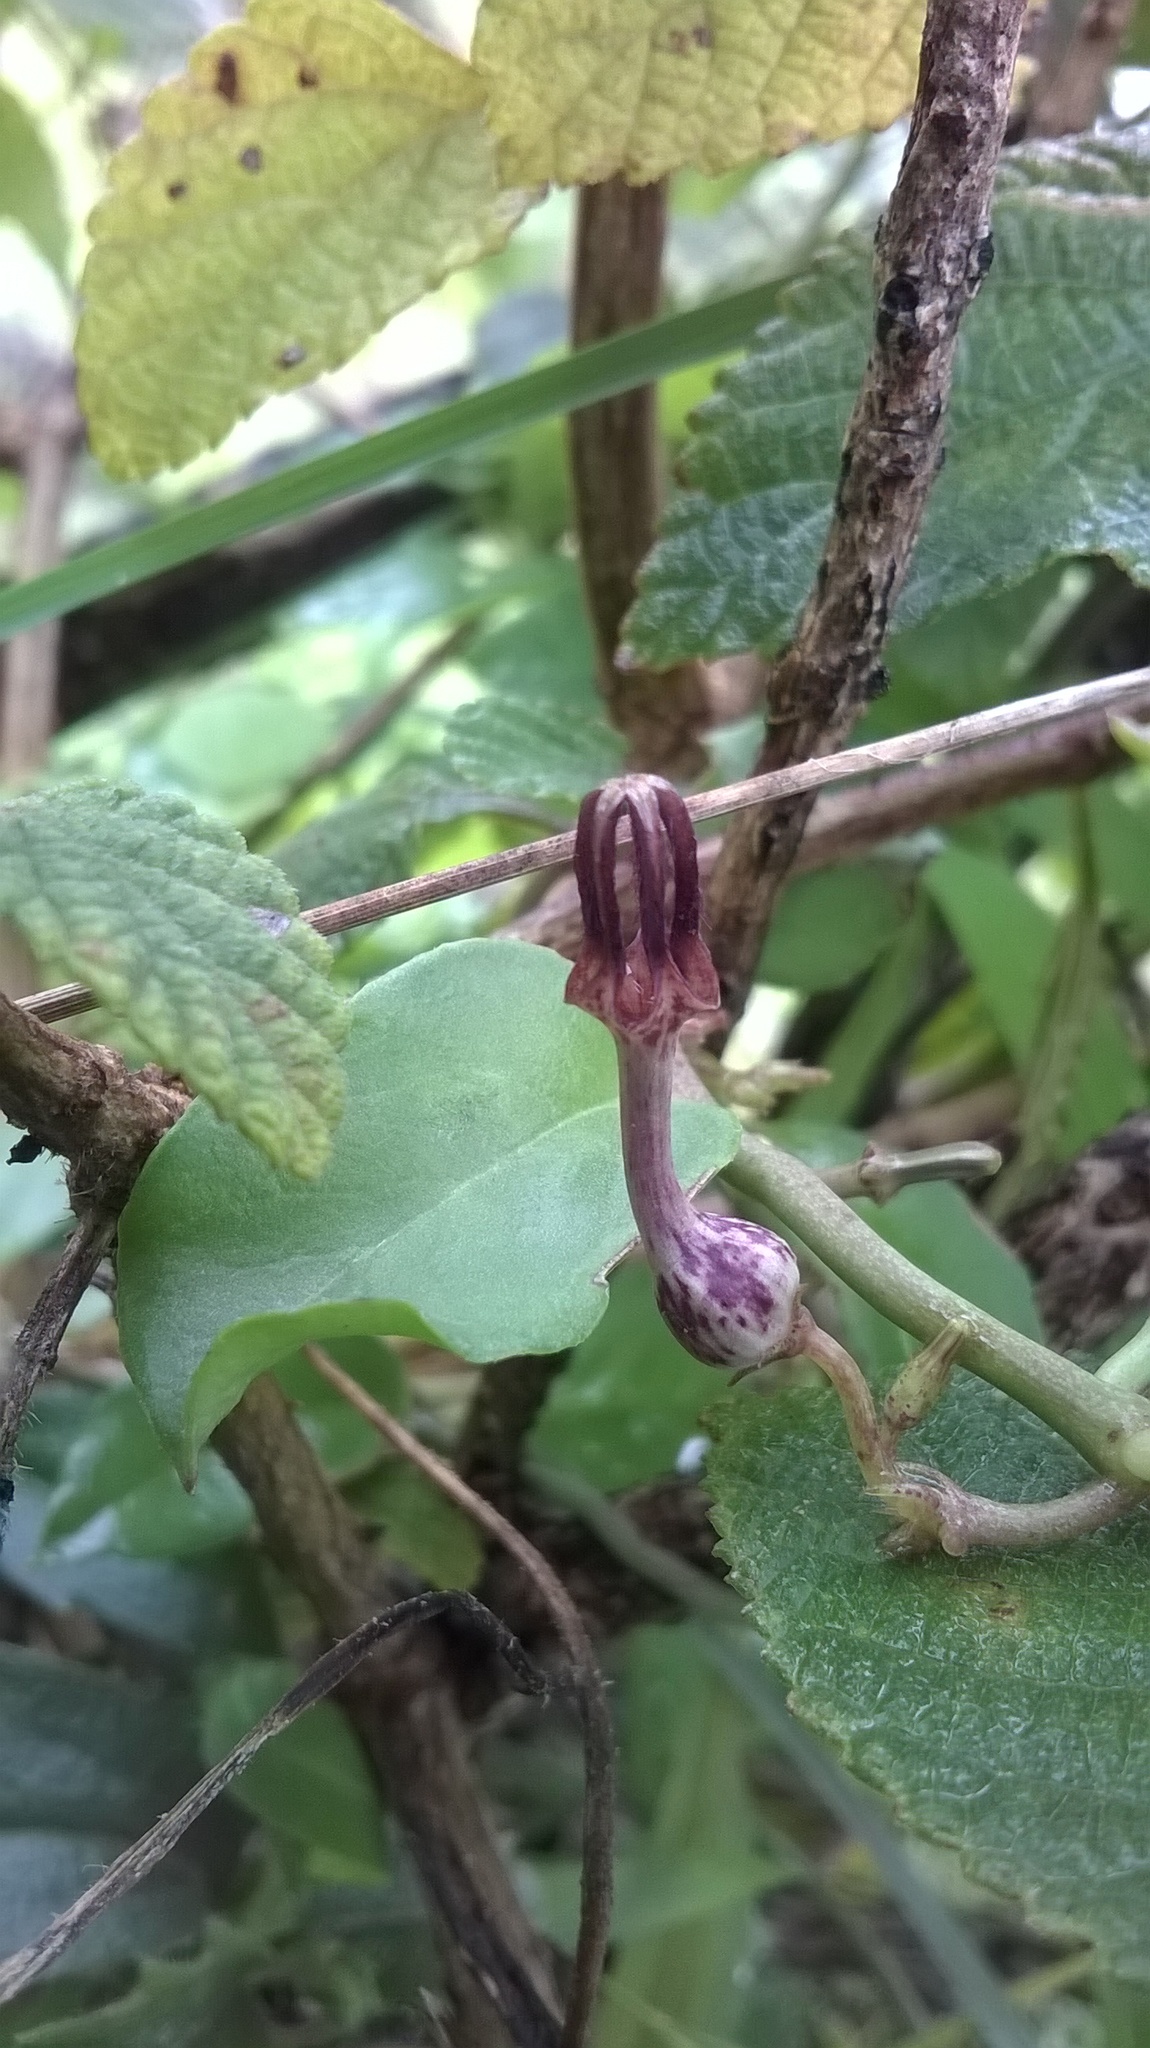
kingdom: Plantae
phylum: Tracheophyta
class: Magnoliopsida
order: Gentianales
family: Apocynaceae
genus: Ceropegia
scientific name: Ceropegia bulbosa
